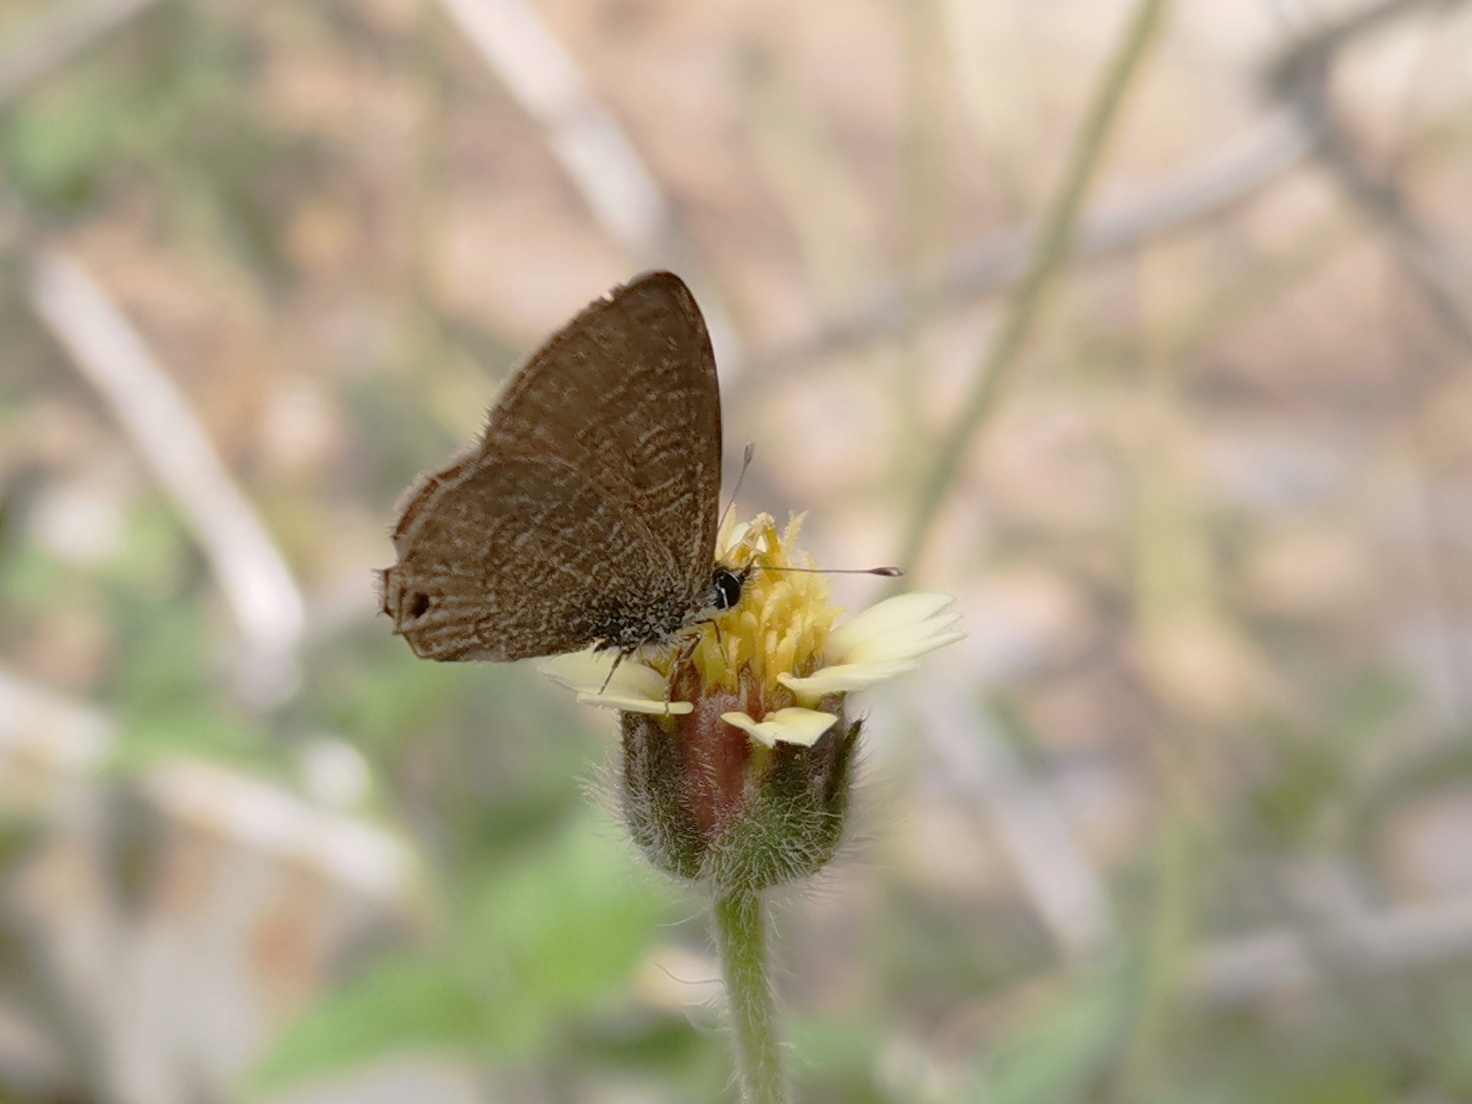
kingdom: Animalia
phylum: Arthropoda
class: Insecta
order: Lepidoptera
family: Lycaenidae
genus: Prosotas
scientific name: Prosotas nora
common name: Common line blue
